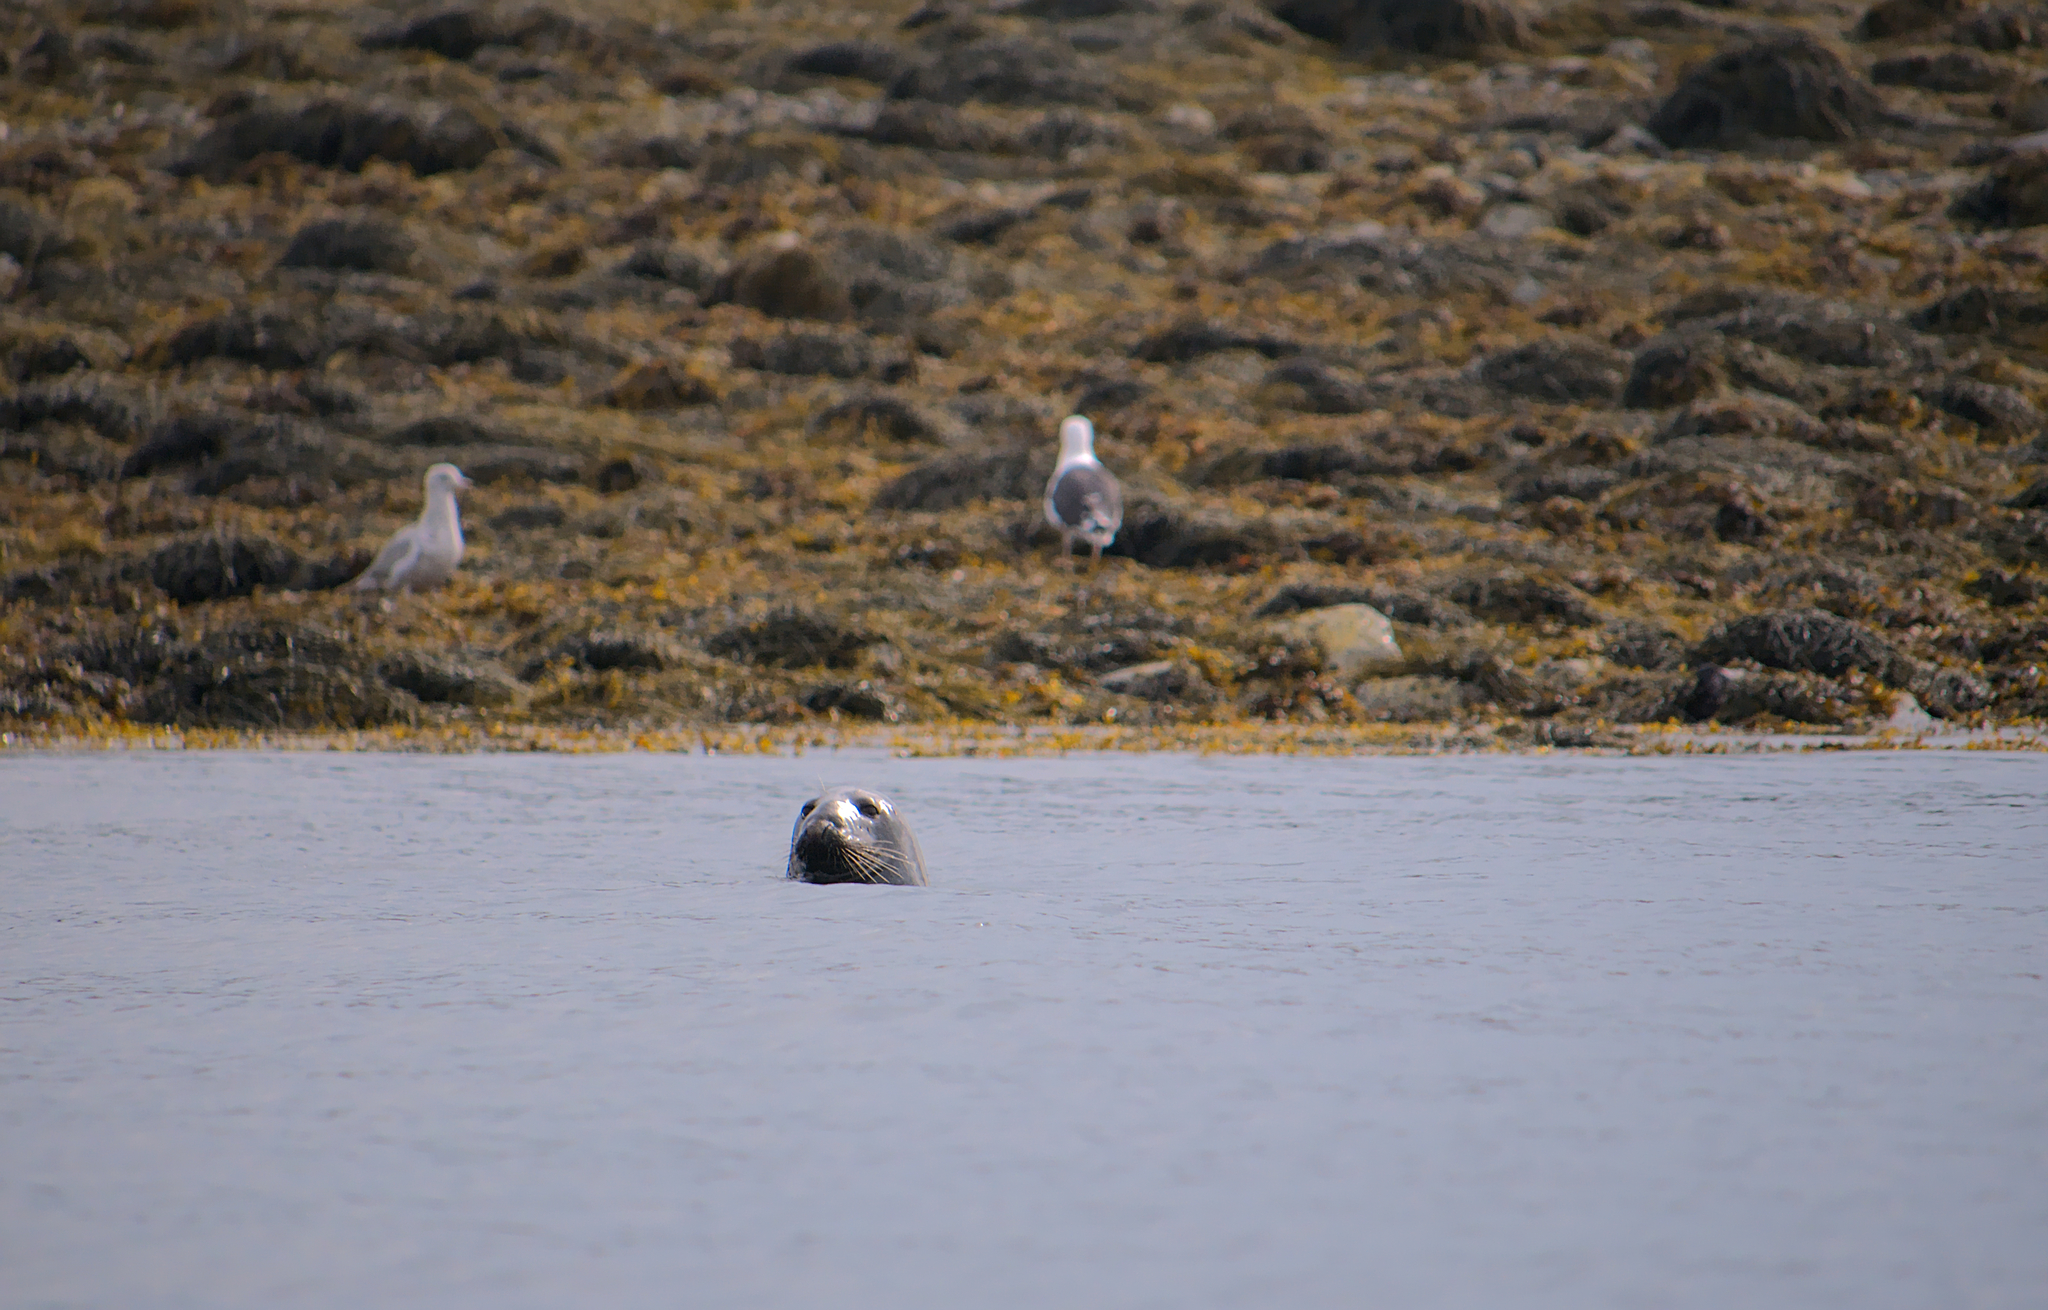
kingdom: Animalia
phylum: Chordata
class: Mammalia
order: Carnivora
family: Phocidae
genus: Halichoerus
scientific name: Halichoerus grypus
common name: Grey seal
